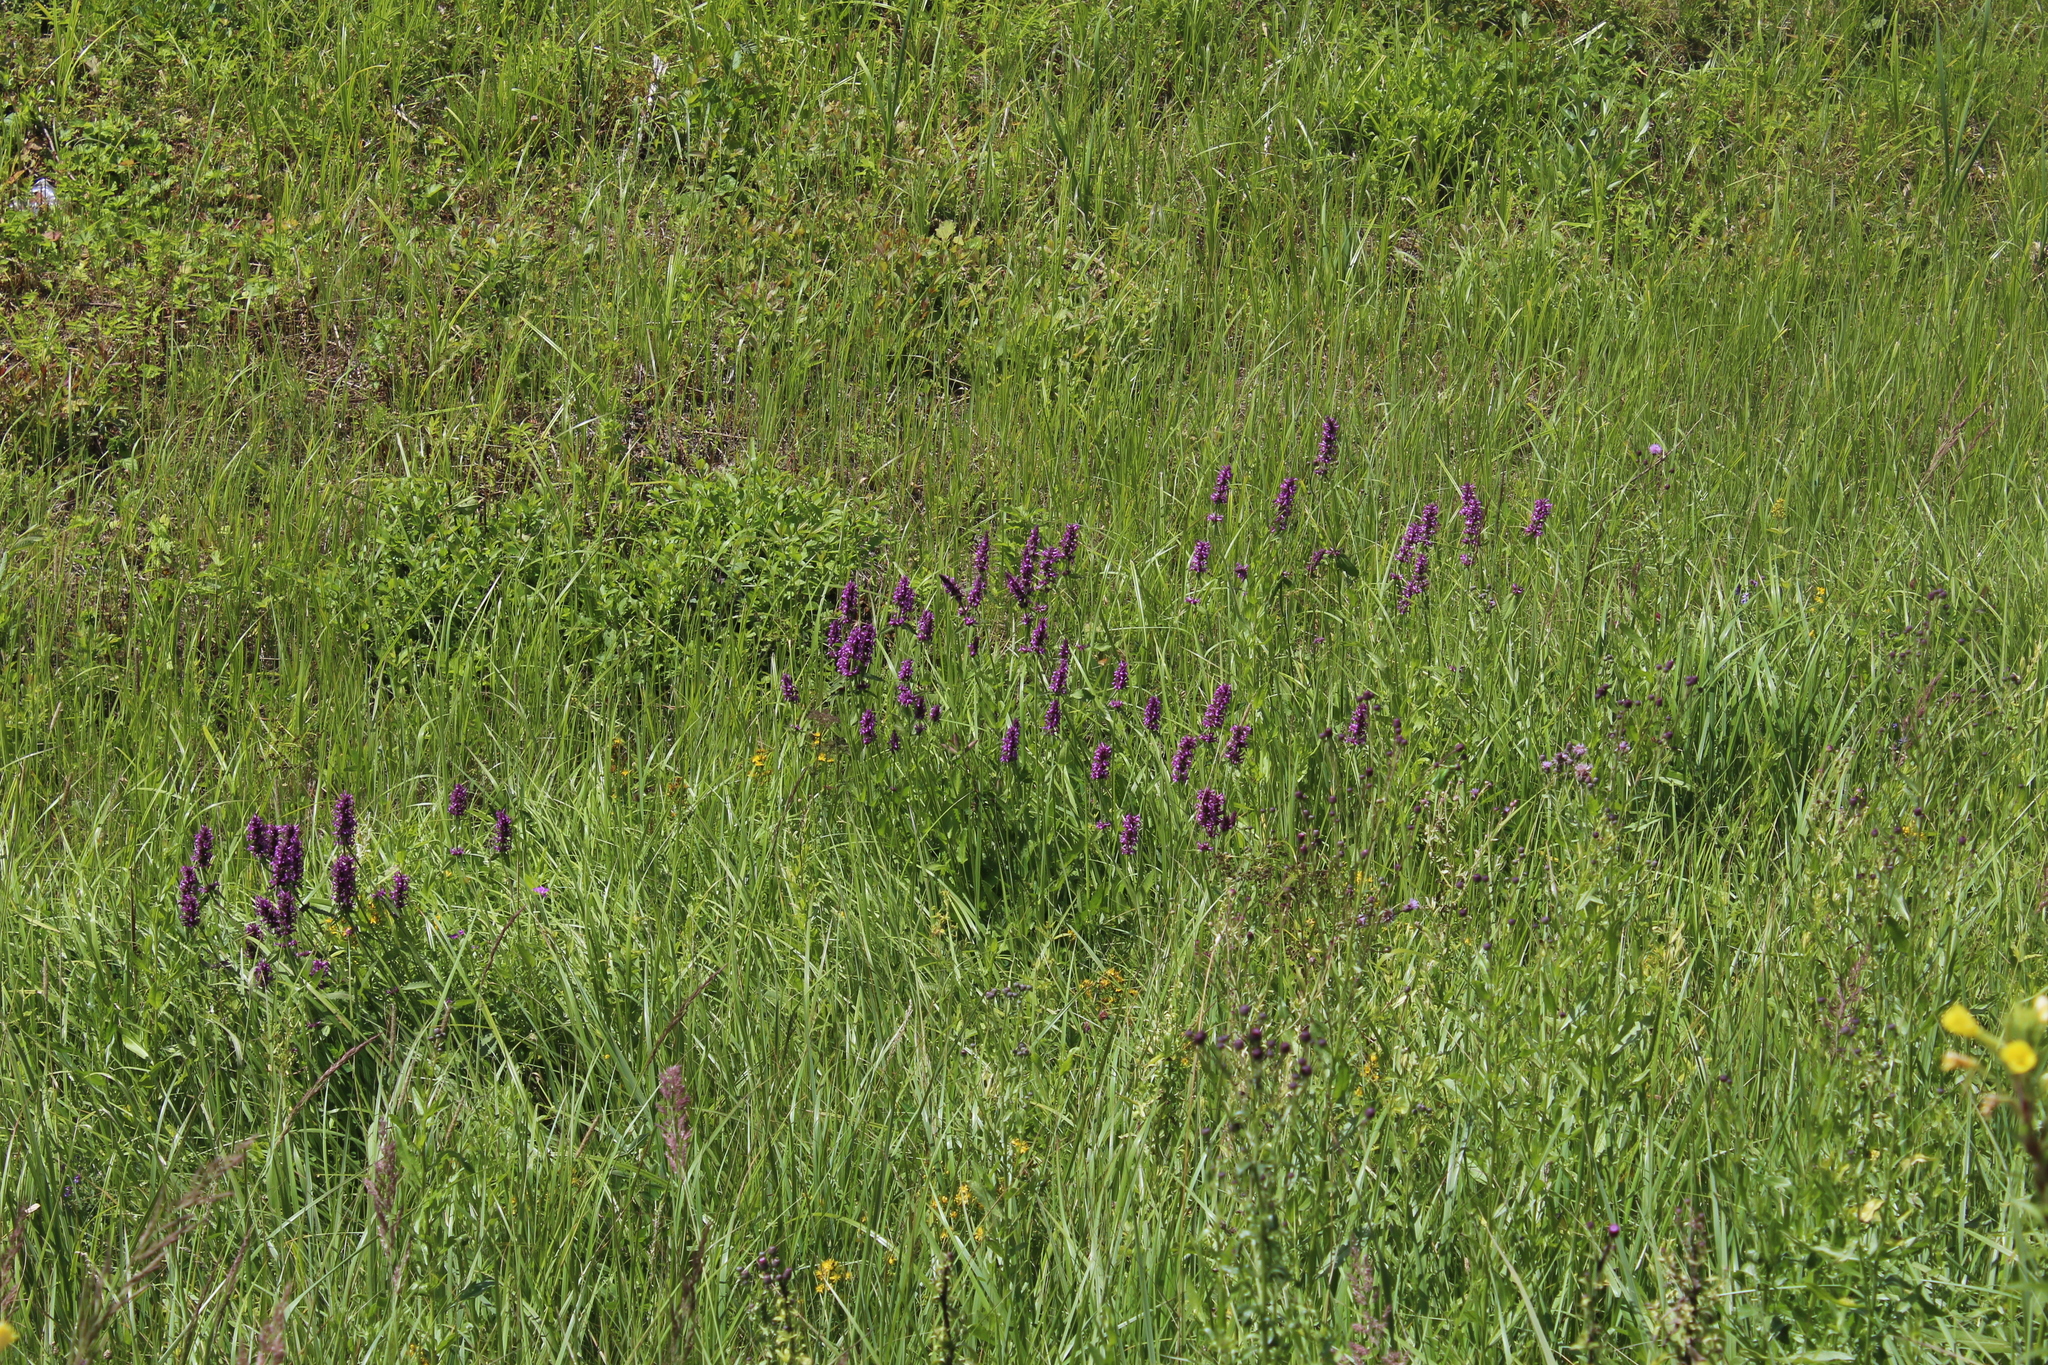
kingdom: Plantae
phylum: Tracheophyta
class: Magnoliopsida
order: Lamiales
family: Lamiaceae
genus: Betonica
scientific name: Betonica officinalis
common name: Bishop's-wort
